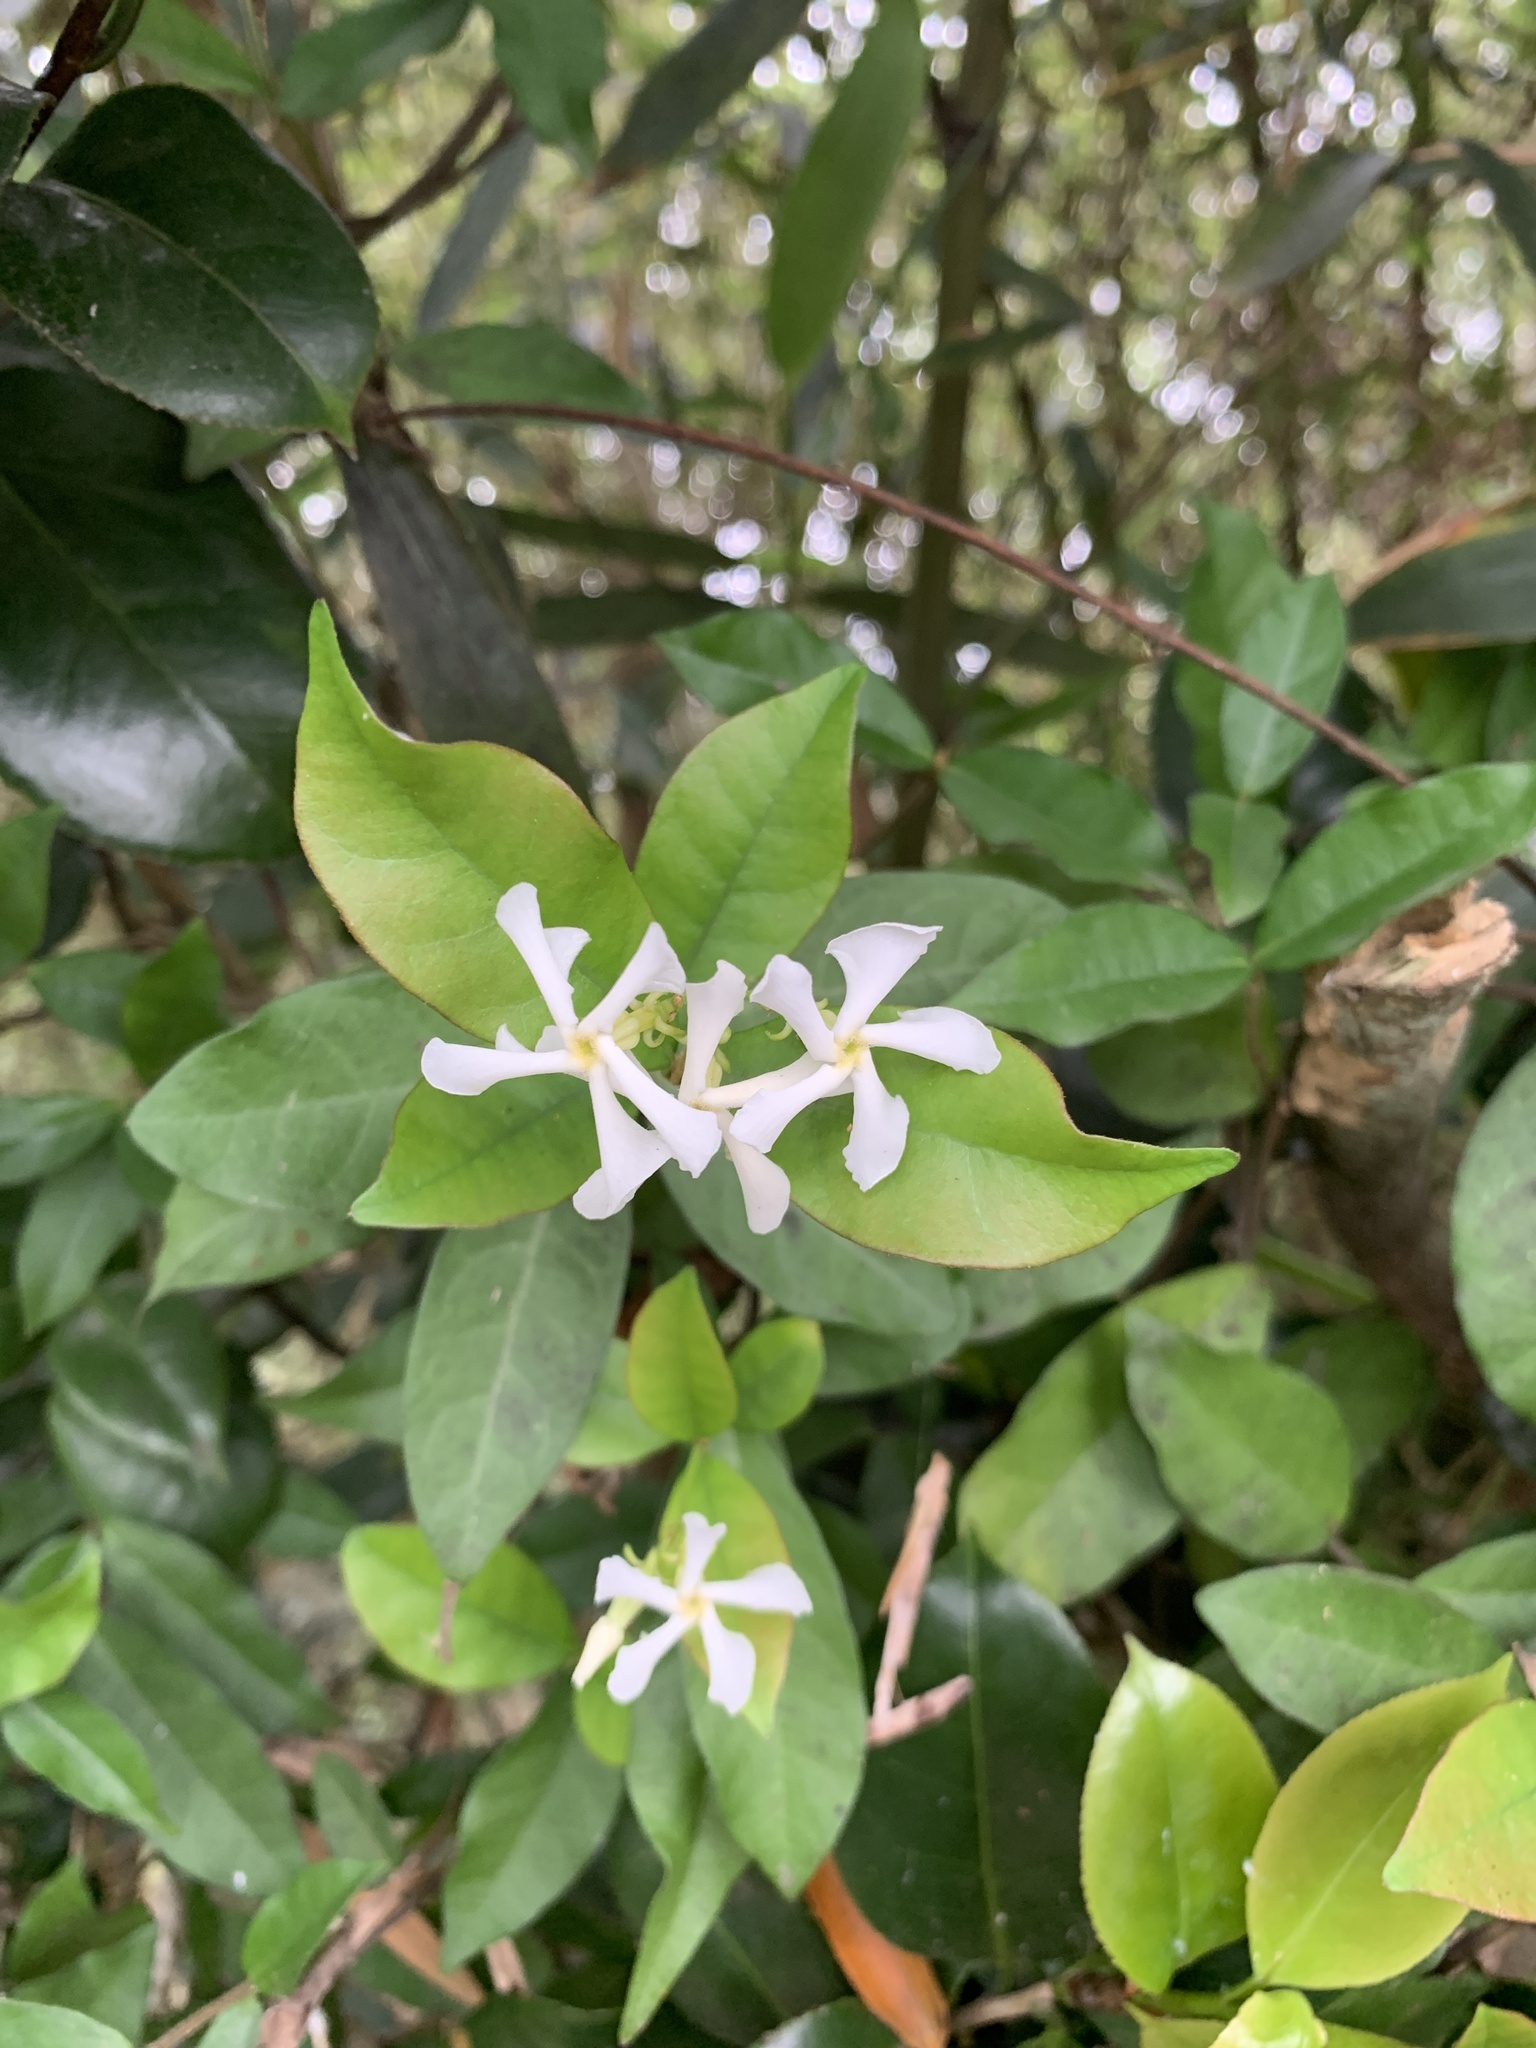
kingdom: Plantae
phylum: Tracheophyta
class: Magnoliopsida
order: Gentianales
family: Apocynaceae
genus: Trachelospermum
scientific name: Trachelospermum jasminoides
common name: Confederate jasmine
